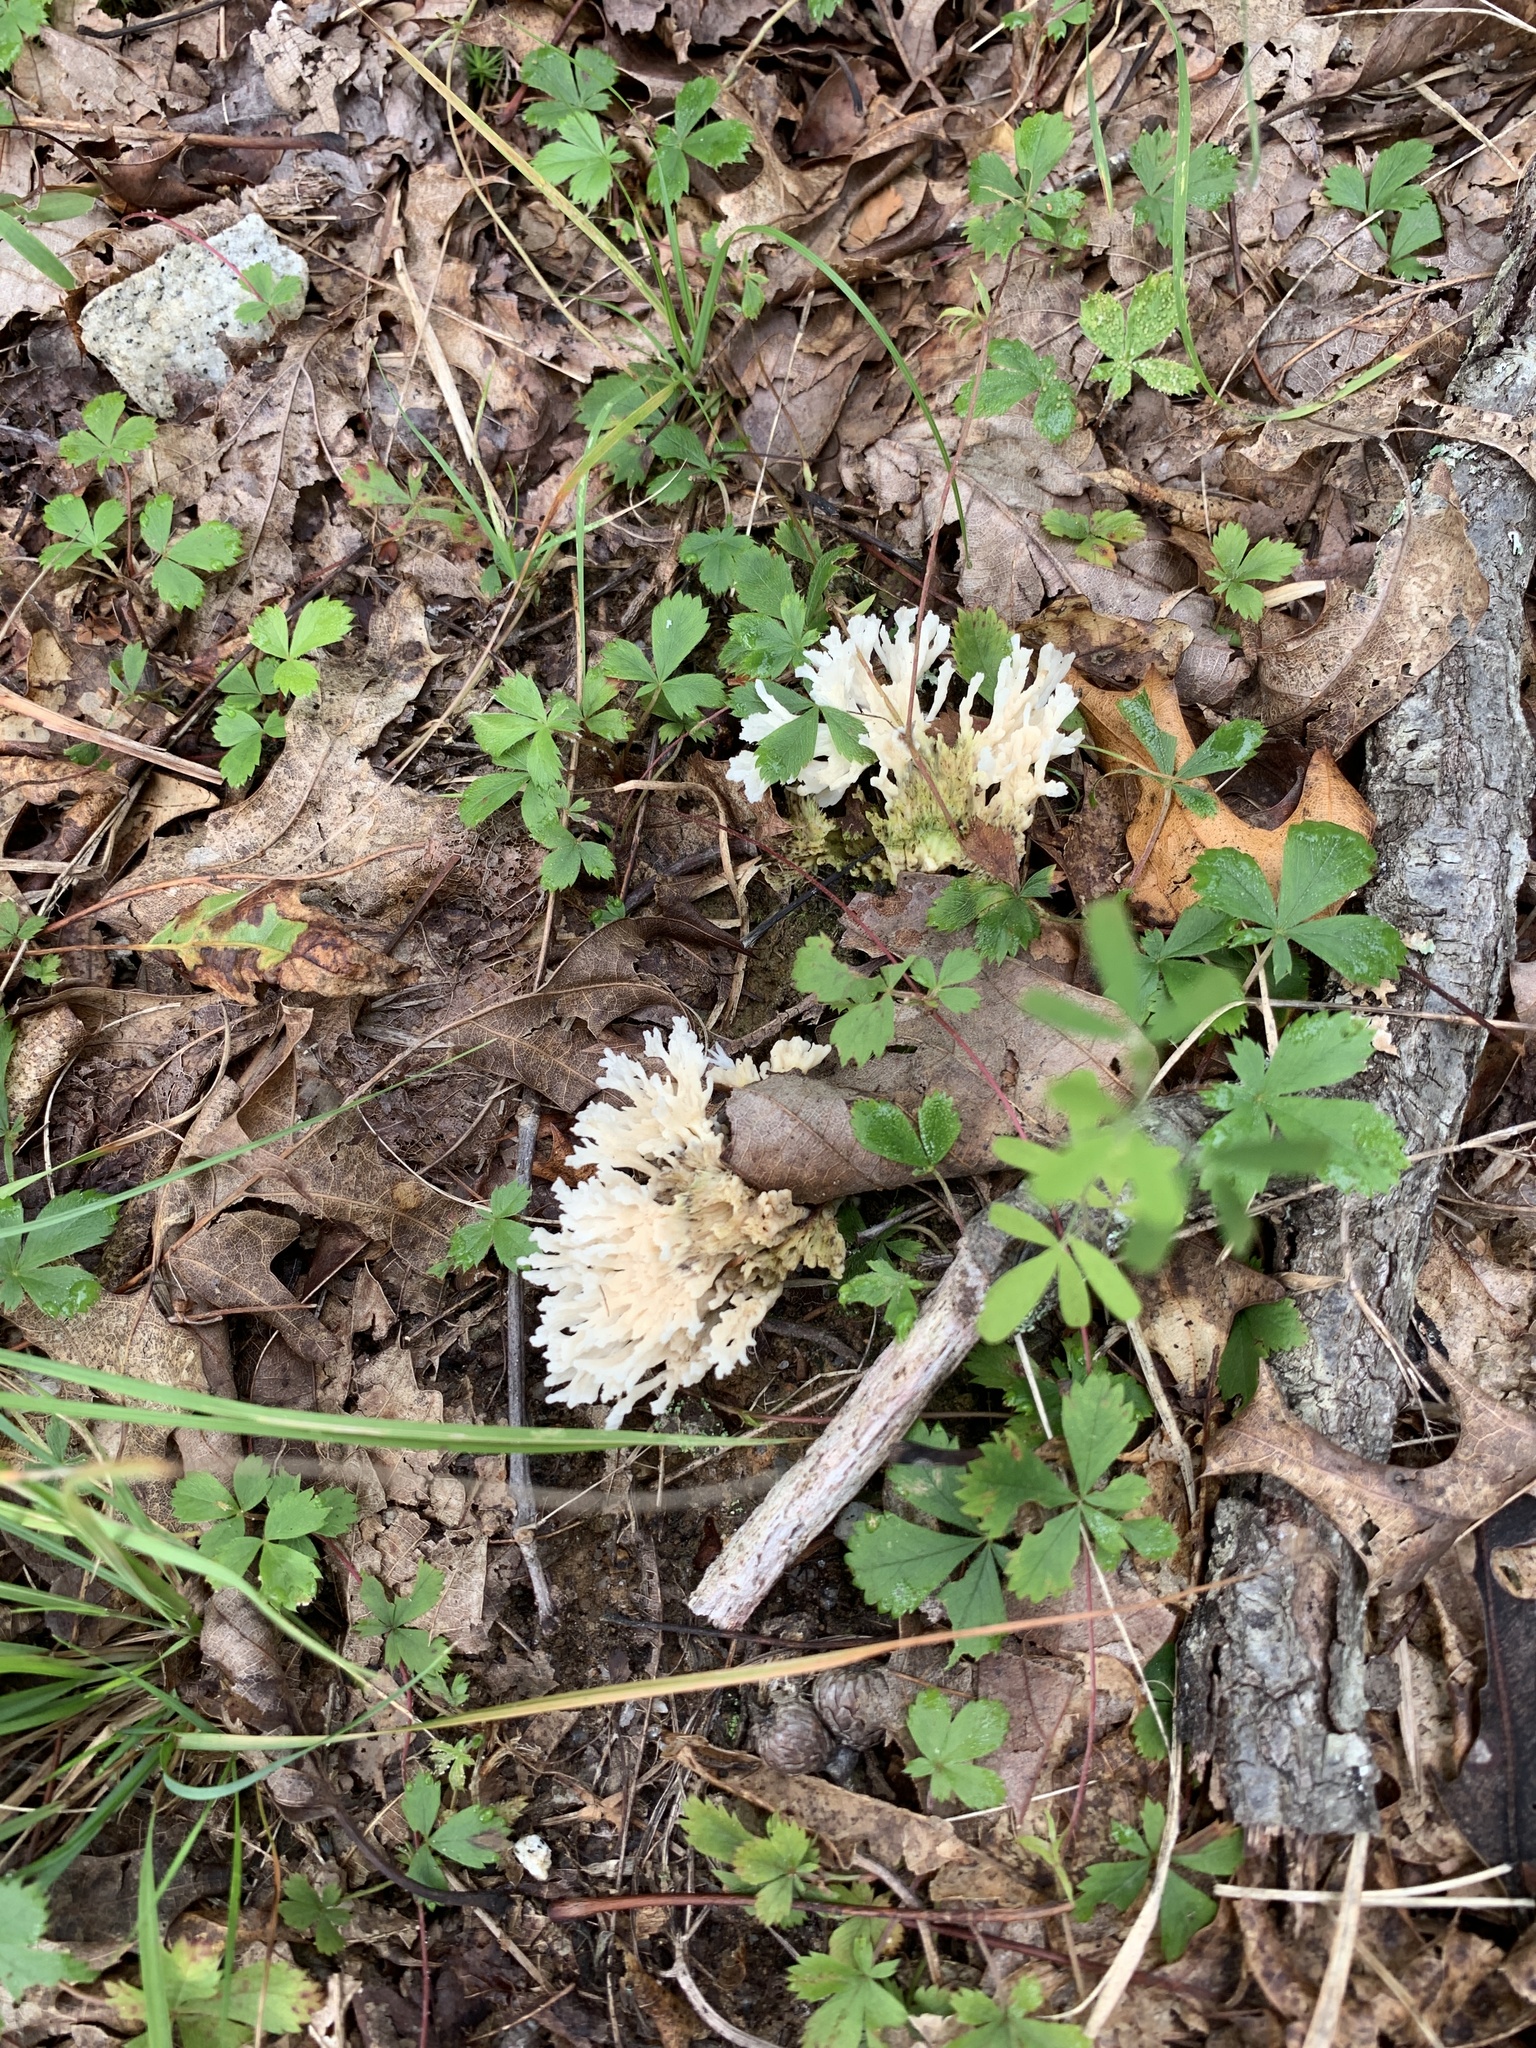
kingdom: Fungi
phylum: Basidiomycota
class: Agaricomycetes
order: Sebacinales
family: Sebacinaceae
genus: Sebacina
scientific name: Sebacina schweinitzii
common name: Jellied false coral fungus
